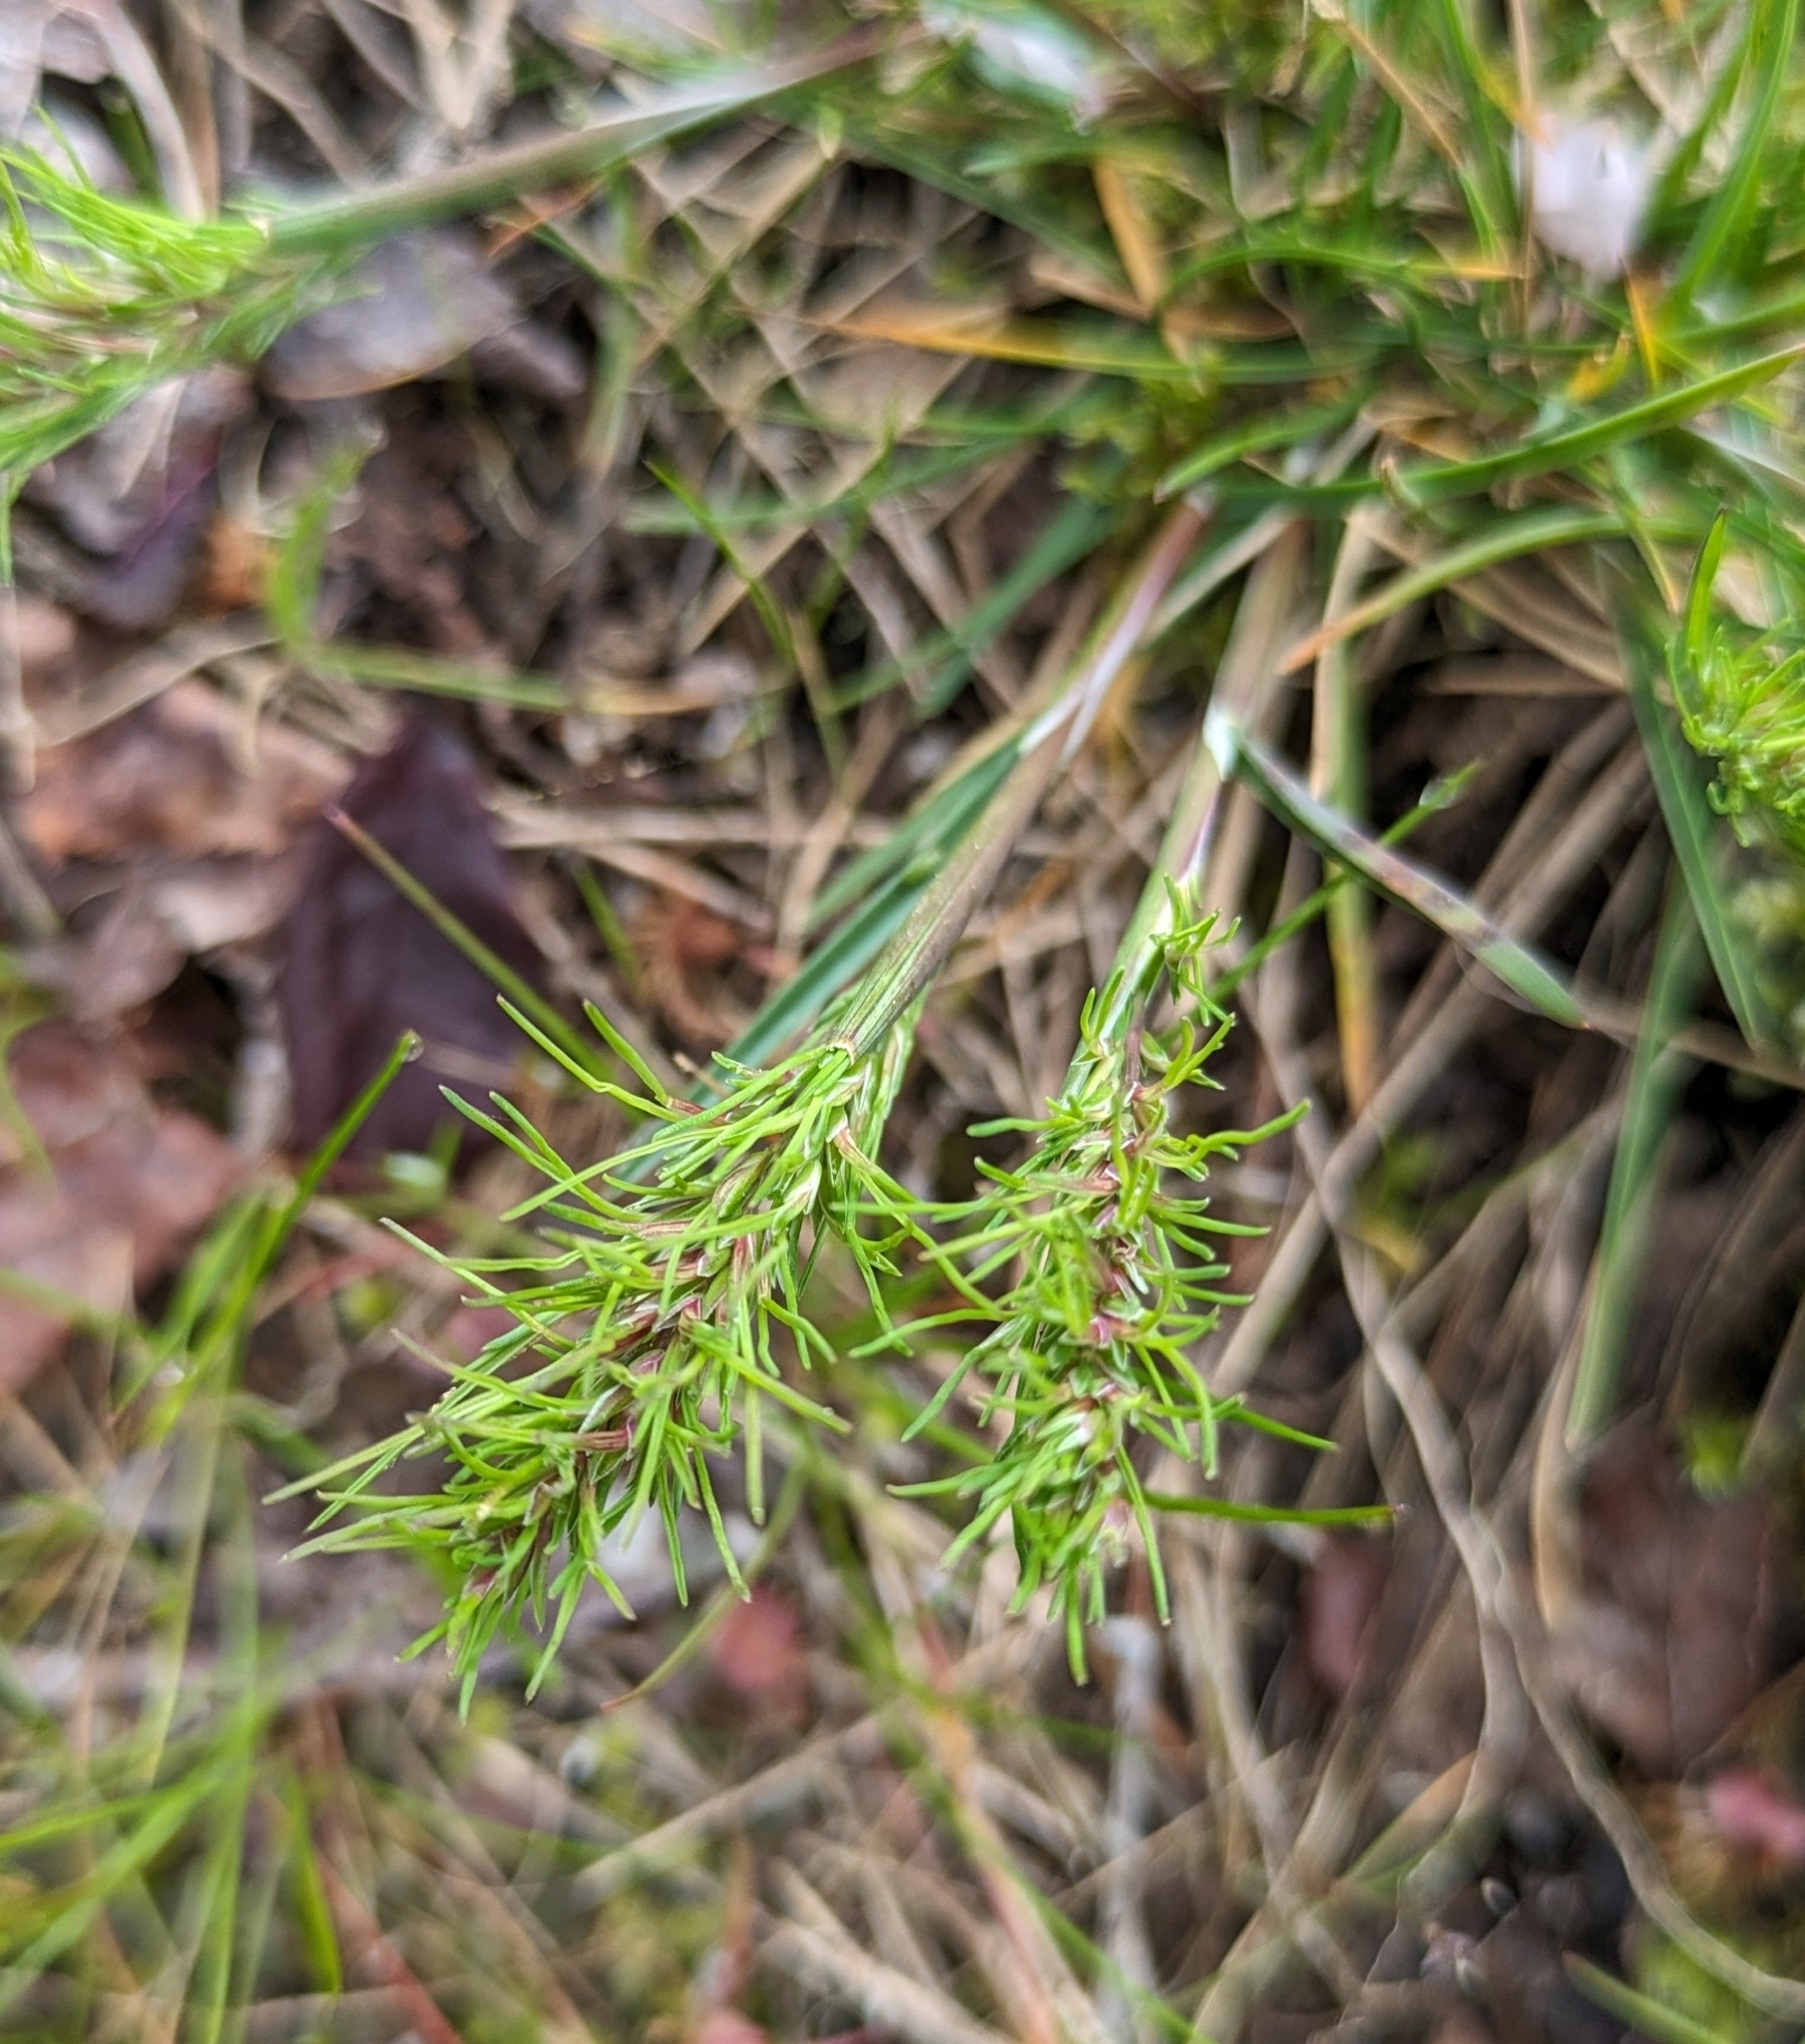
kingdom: Plantae
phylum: Tracheophyta
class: Liliopsida
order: Poales
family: Poaceae
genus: Poa
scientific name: Poa bulbosa
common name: Bulbous bluegrass
